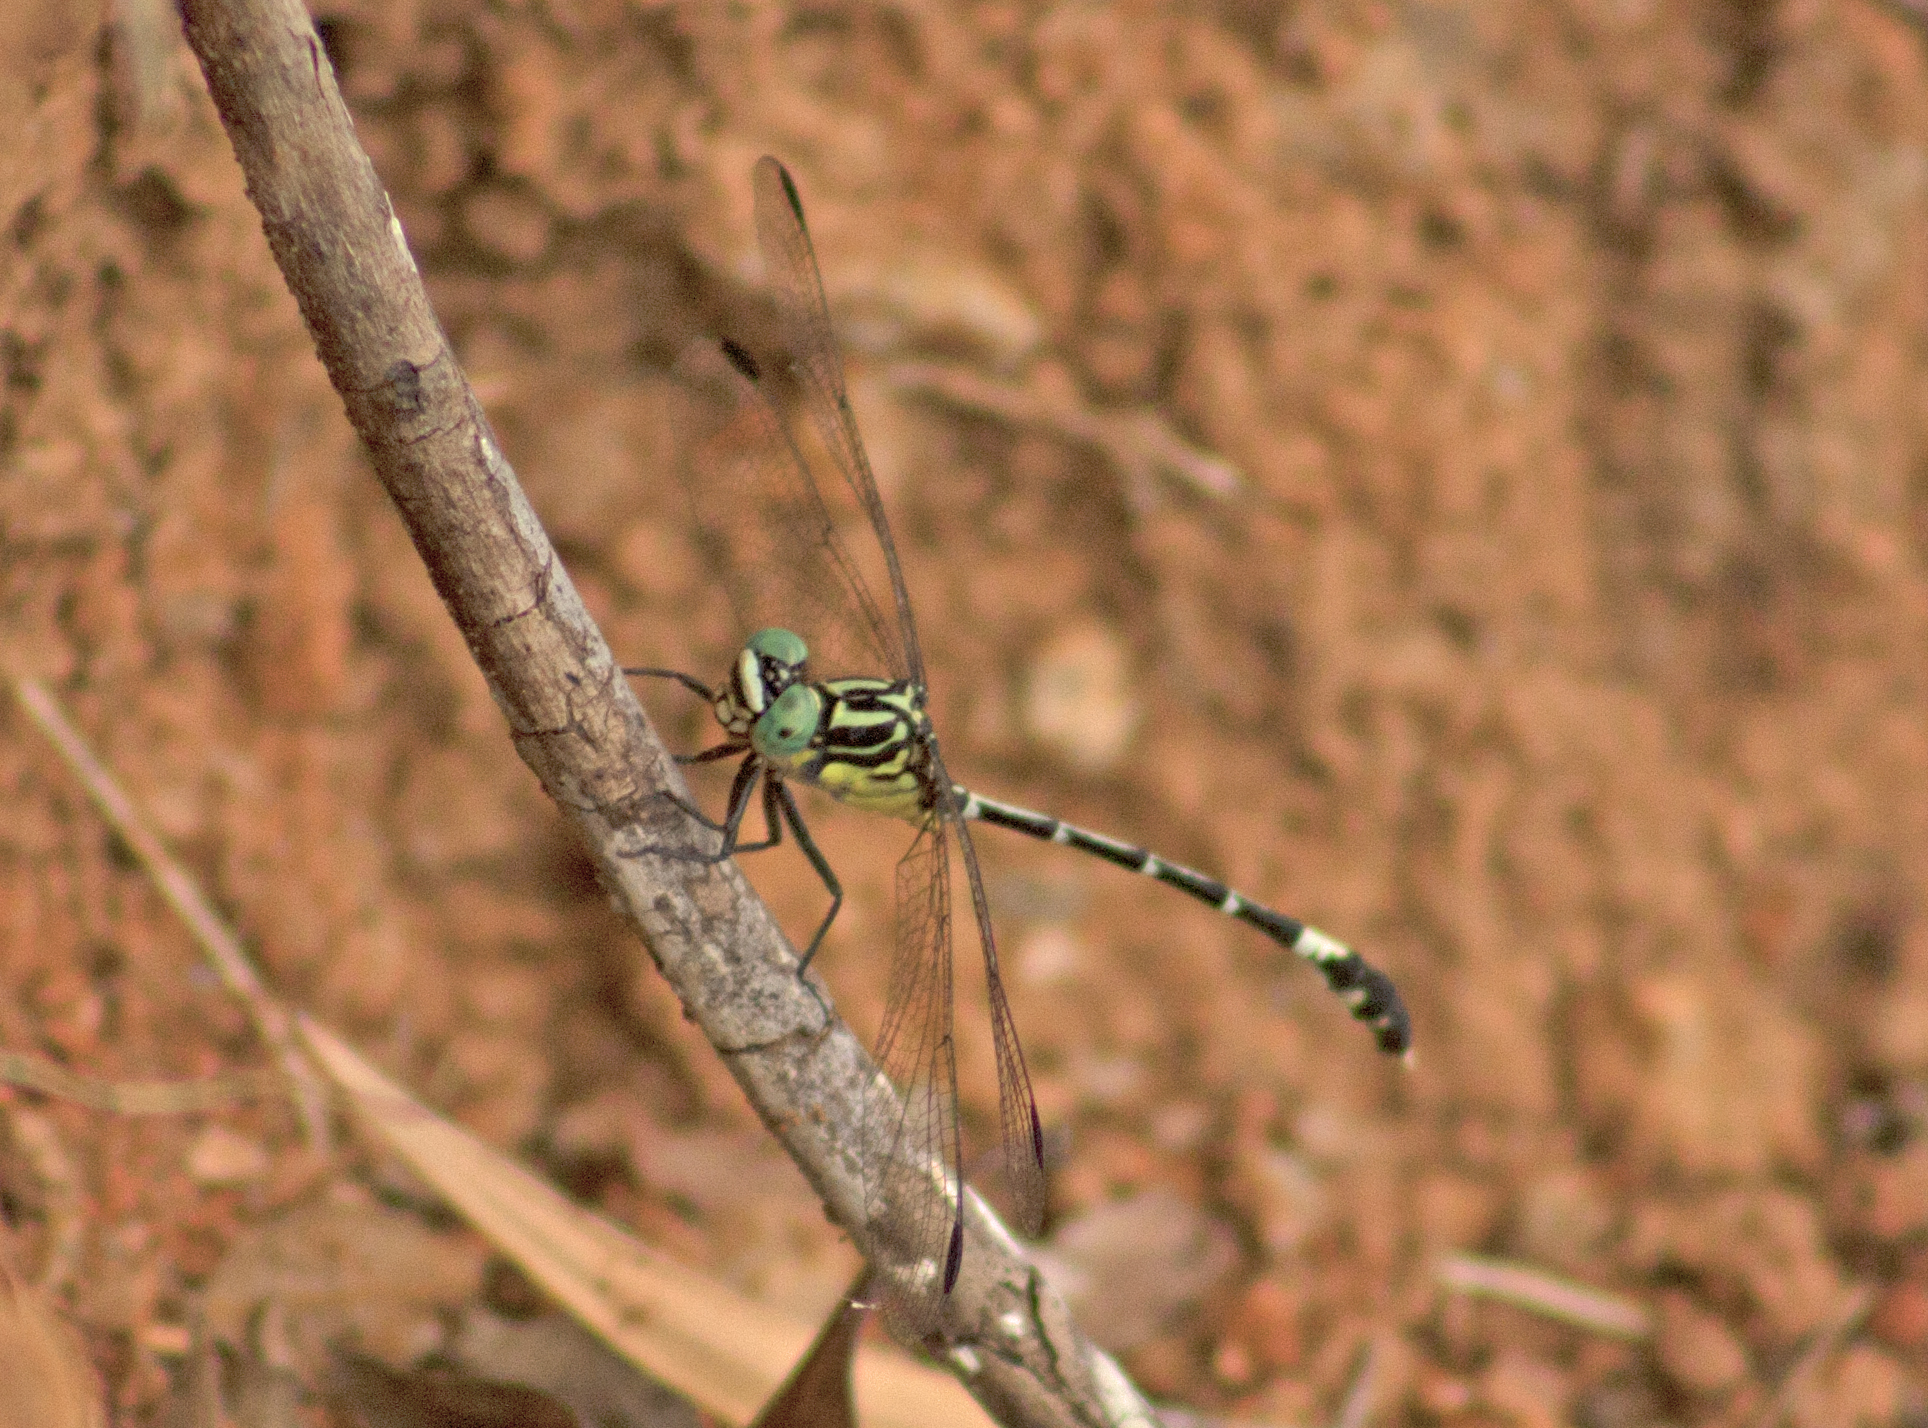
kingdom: Animalia
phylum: Arthropoda
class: Insecta
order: Odonata
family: Gomphidae
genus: Austrogomphus
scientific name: Austrogomphus amphiclitus
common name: Pale hunter
